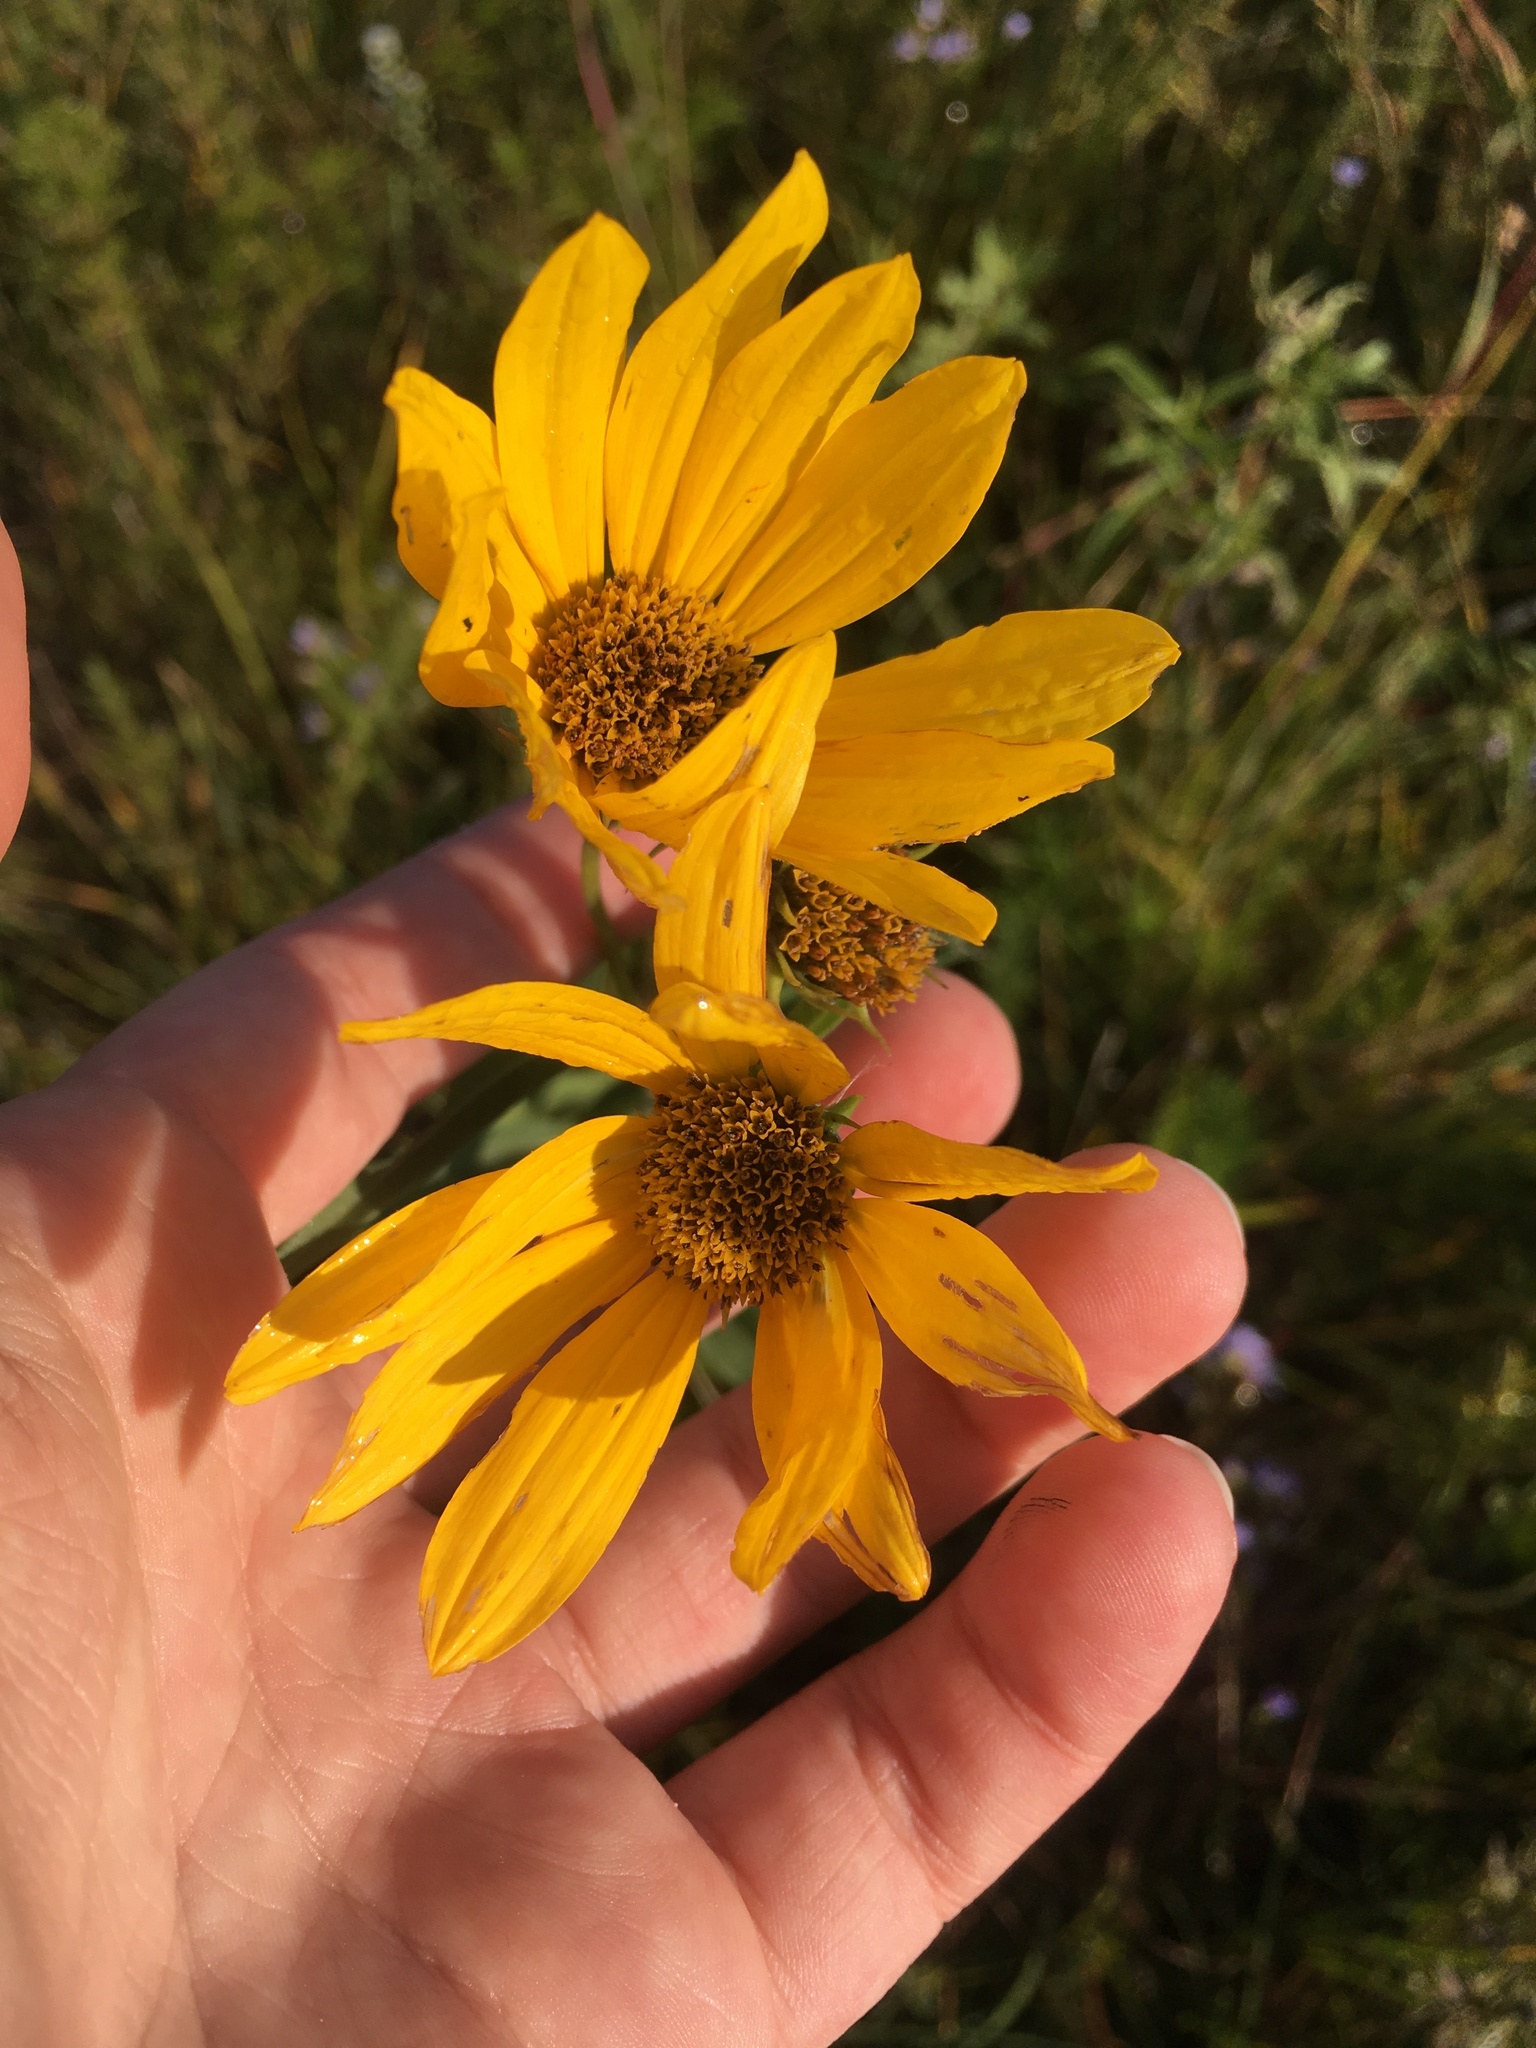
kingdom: Plantae
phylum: Tracheophyta
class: Magnoliopsida
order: Asterales
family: Asteraceae
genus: Helianthus
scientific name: Helianthus maximiliani
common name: Maximilian's sunflower
